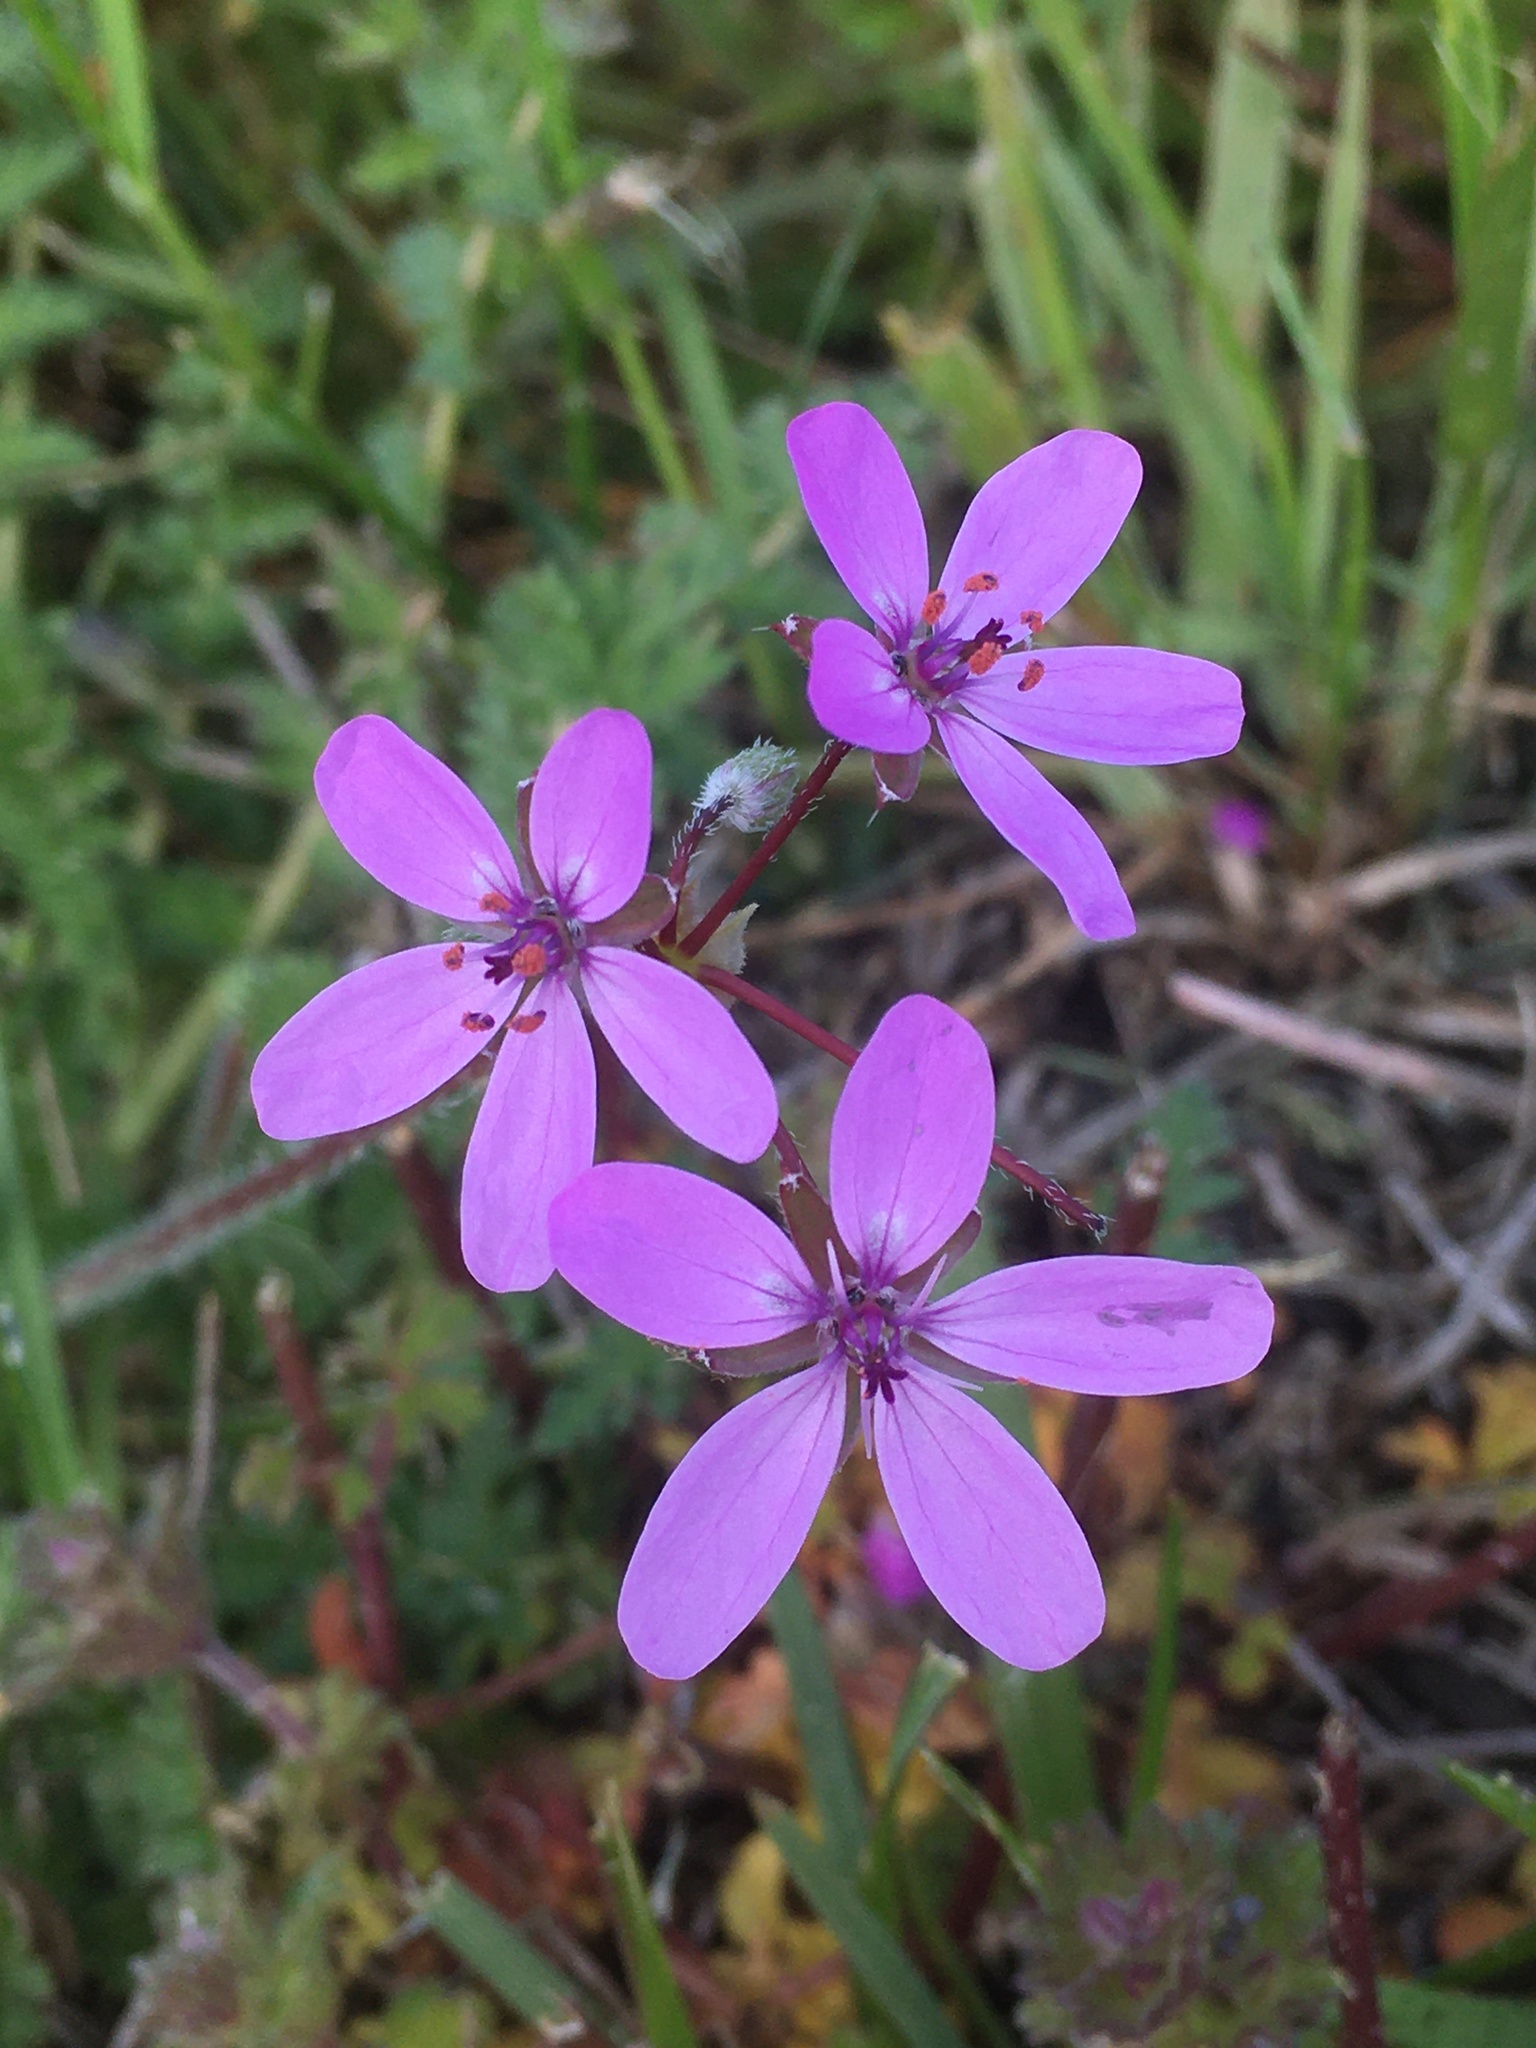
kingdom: Plantae
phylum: Tracheophyta
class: Magnoliopsida
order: Geraniales
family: Geraniaceae
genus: Erodium
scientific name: Erodium cicutarium
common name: Common stork's-bill
